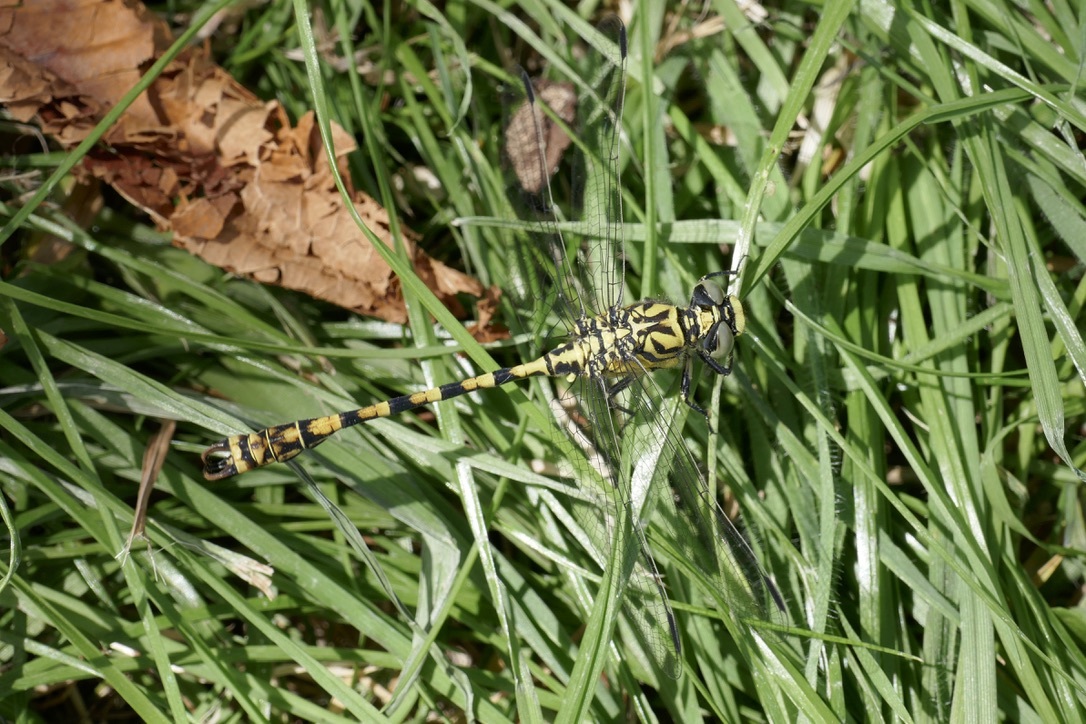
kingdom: Animalia
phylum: Arthropoda
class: Insecta
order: Odonata
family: Gomphidae
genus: Onychogomphus
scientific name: Onychogomphus forcipatus
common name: Small pincertail
